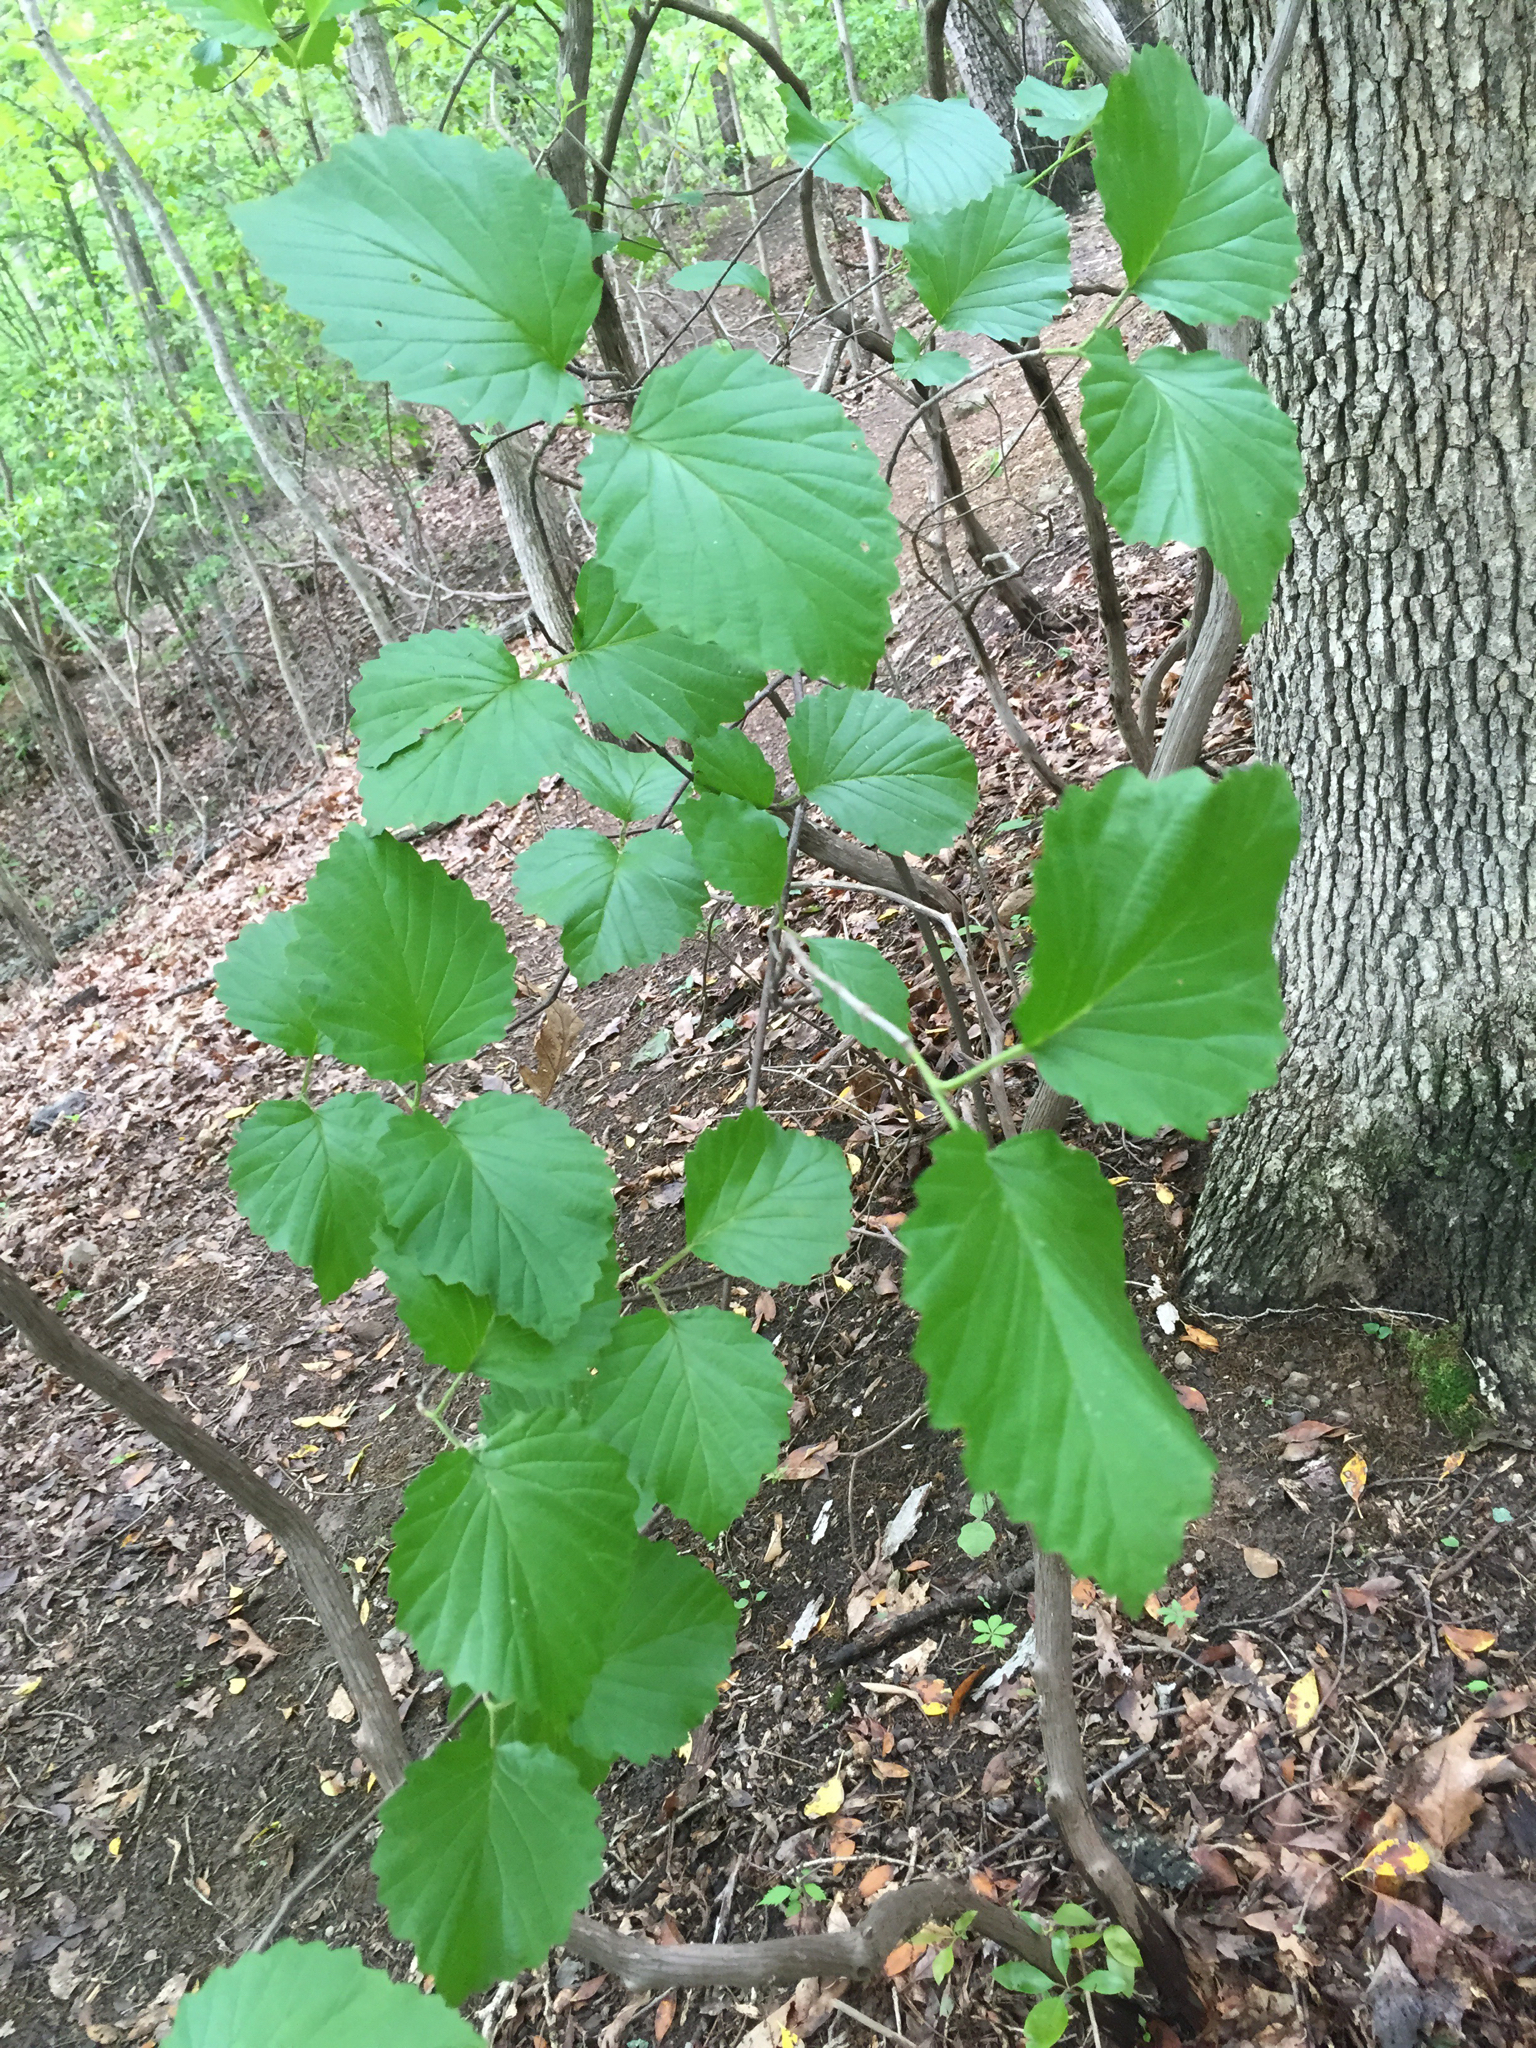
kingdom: Plantae
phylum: Tracheophyta
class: Magnoliopsida
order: Dipsacales
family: Viburnaceae
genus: Viburnum
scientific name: Viburnum dentatum
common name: Arrow-wood
